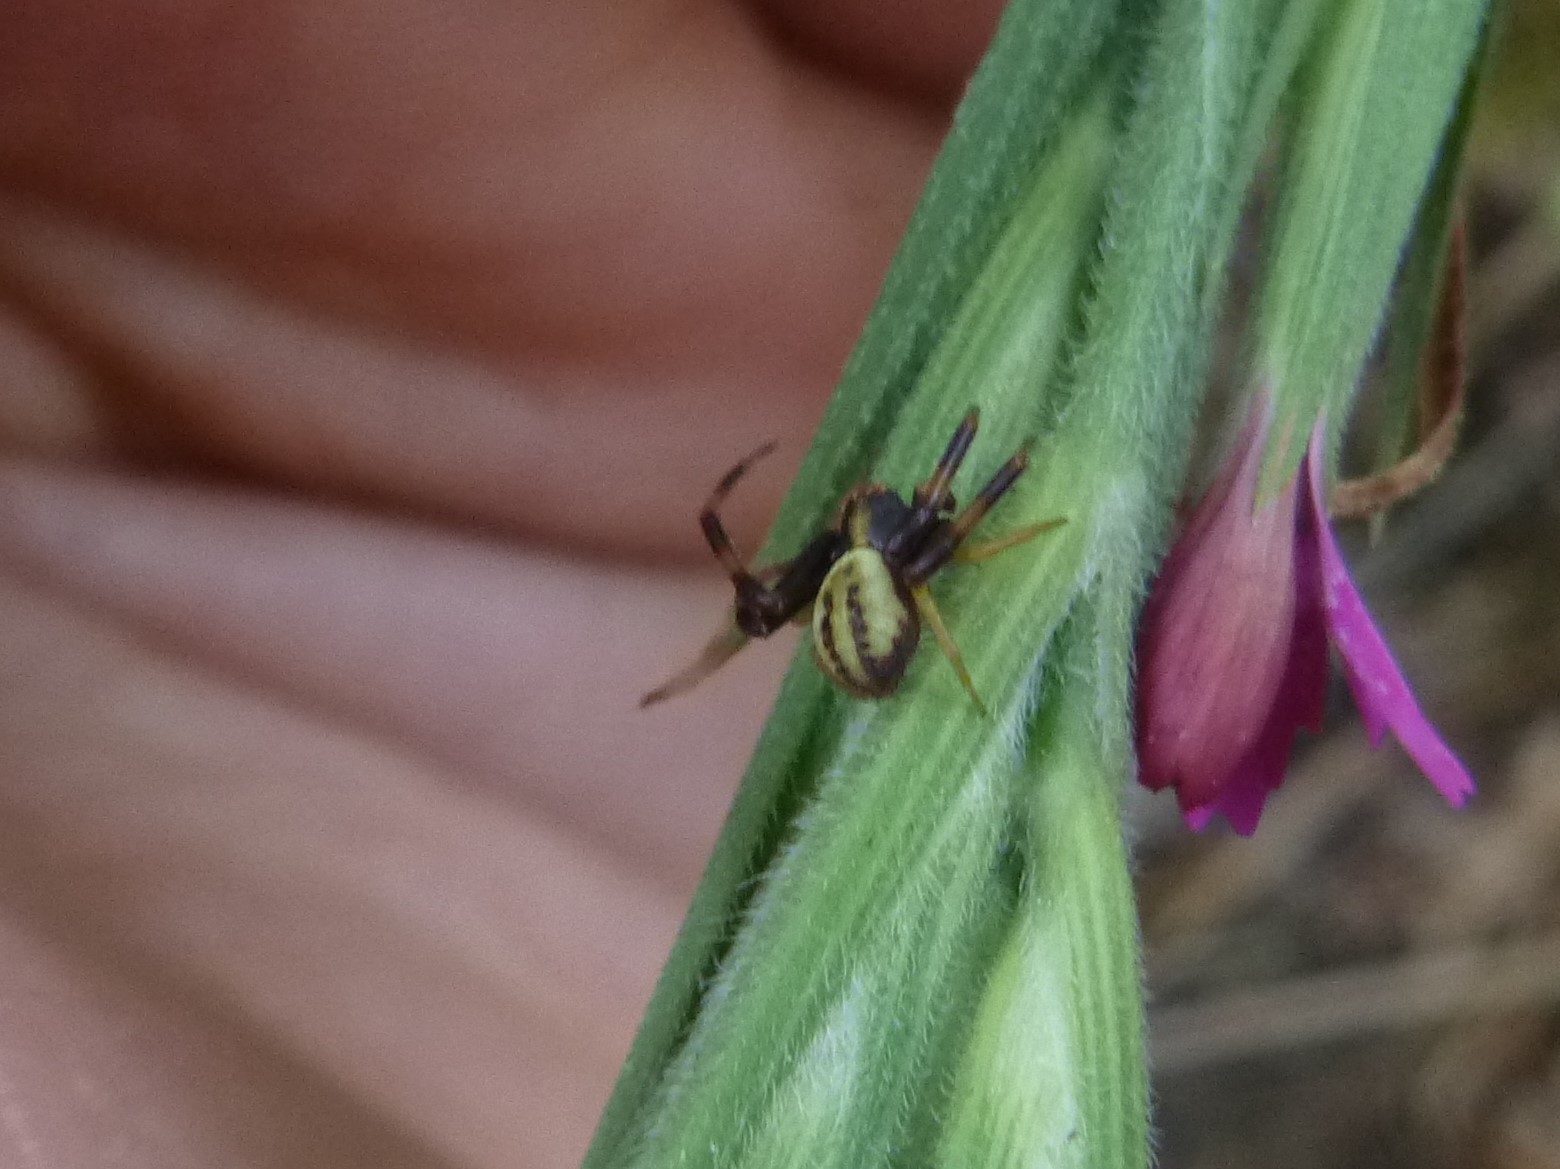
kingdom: Animalia
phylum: Arthropoda
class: Arachnida
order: Araneae
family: Thomisidae
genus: Misumena
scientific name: Misumena vatia
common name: Goldenrod crab spider
